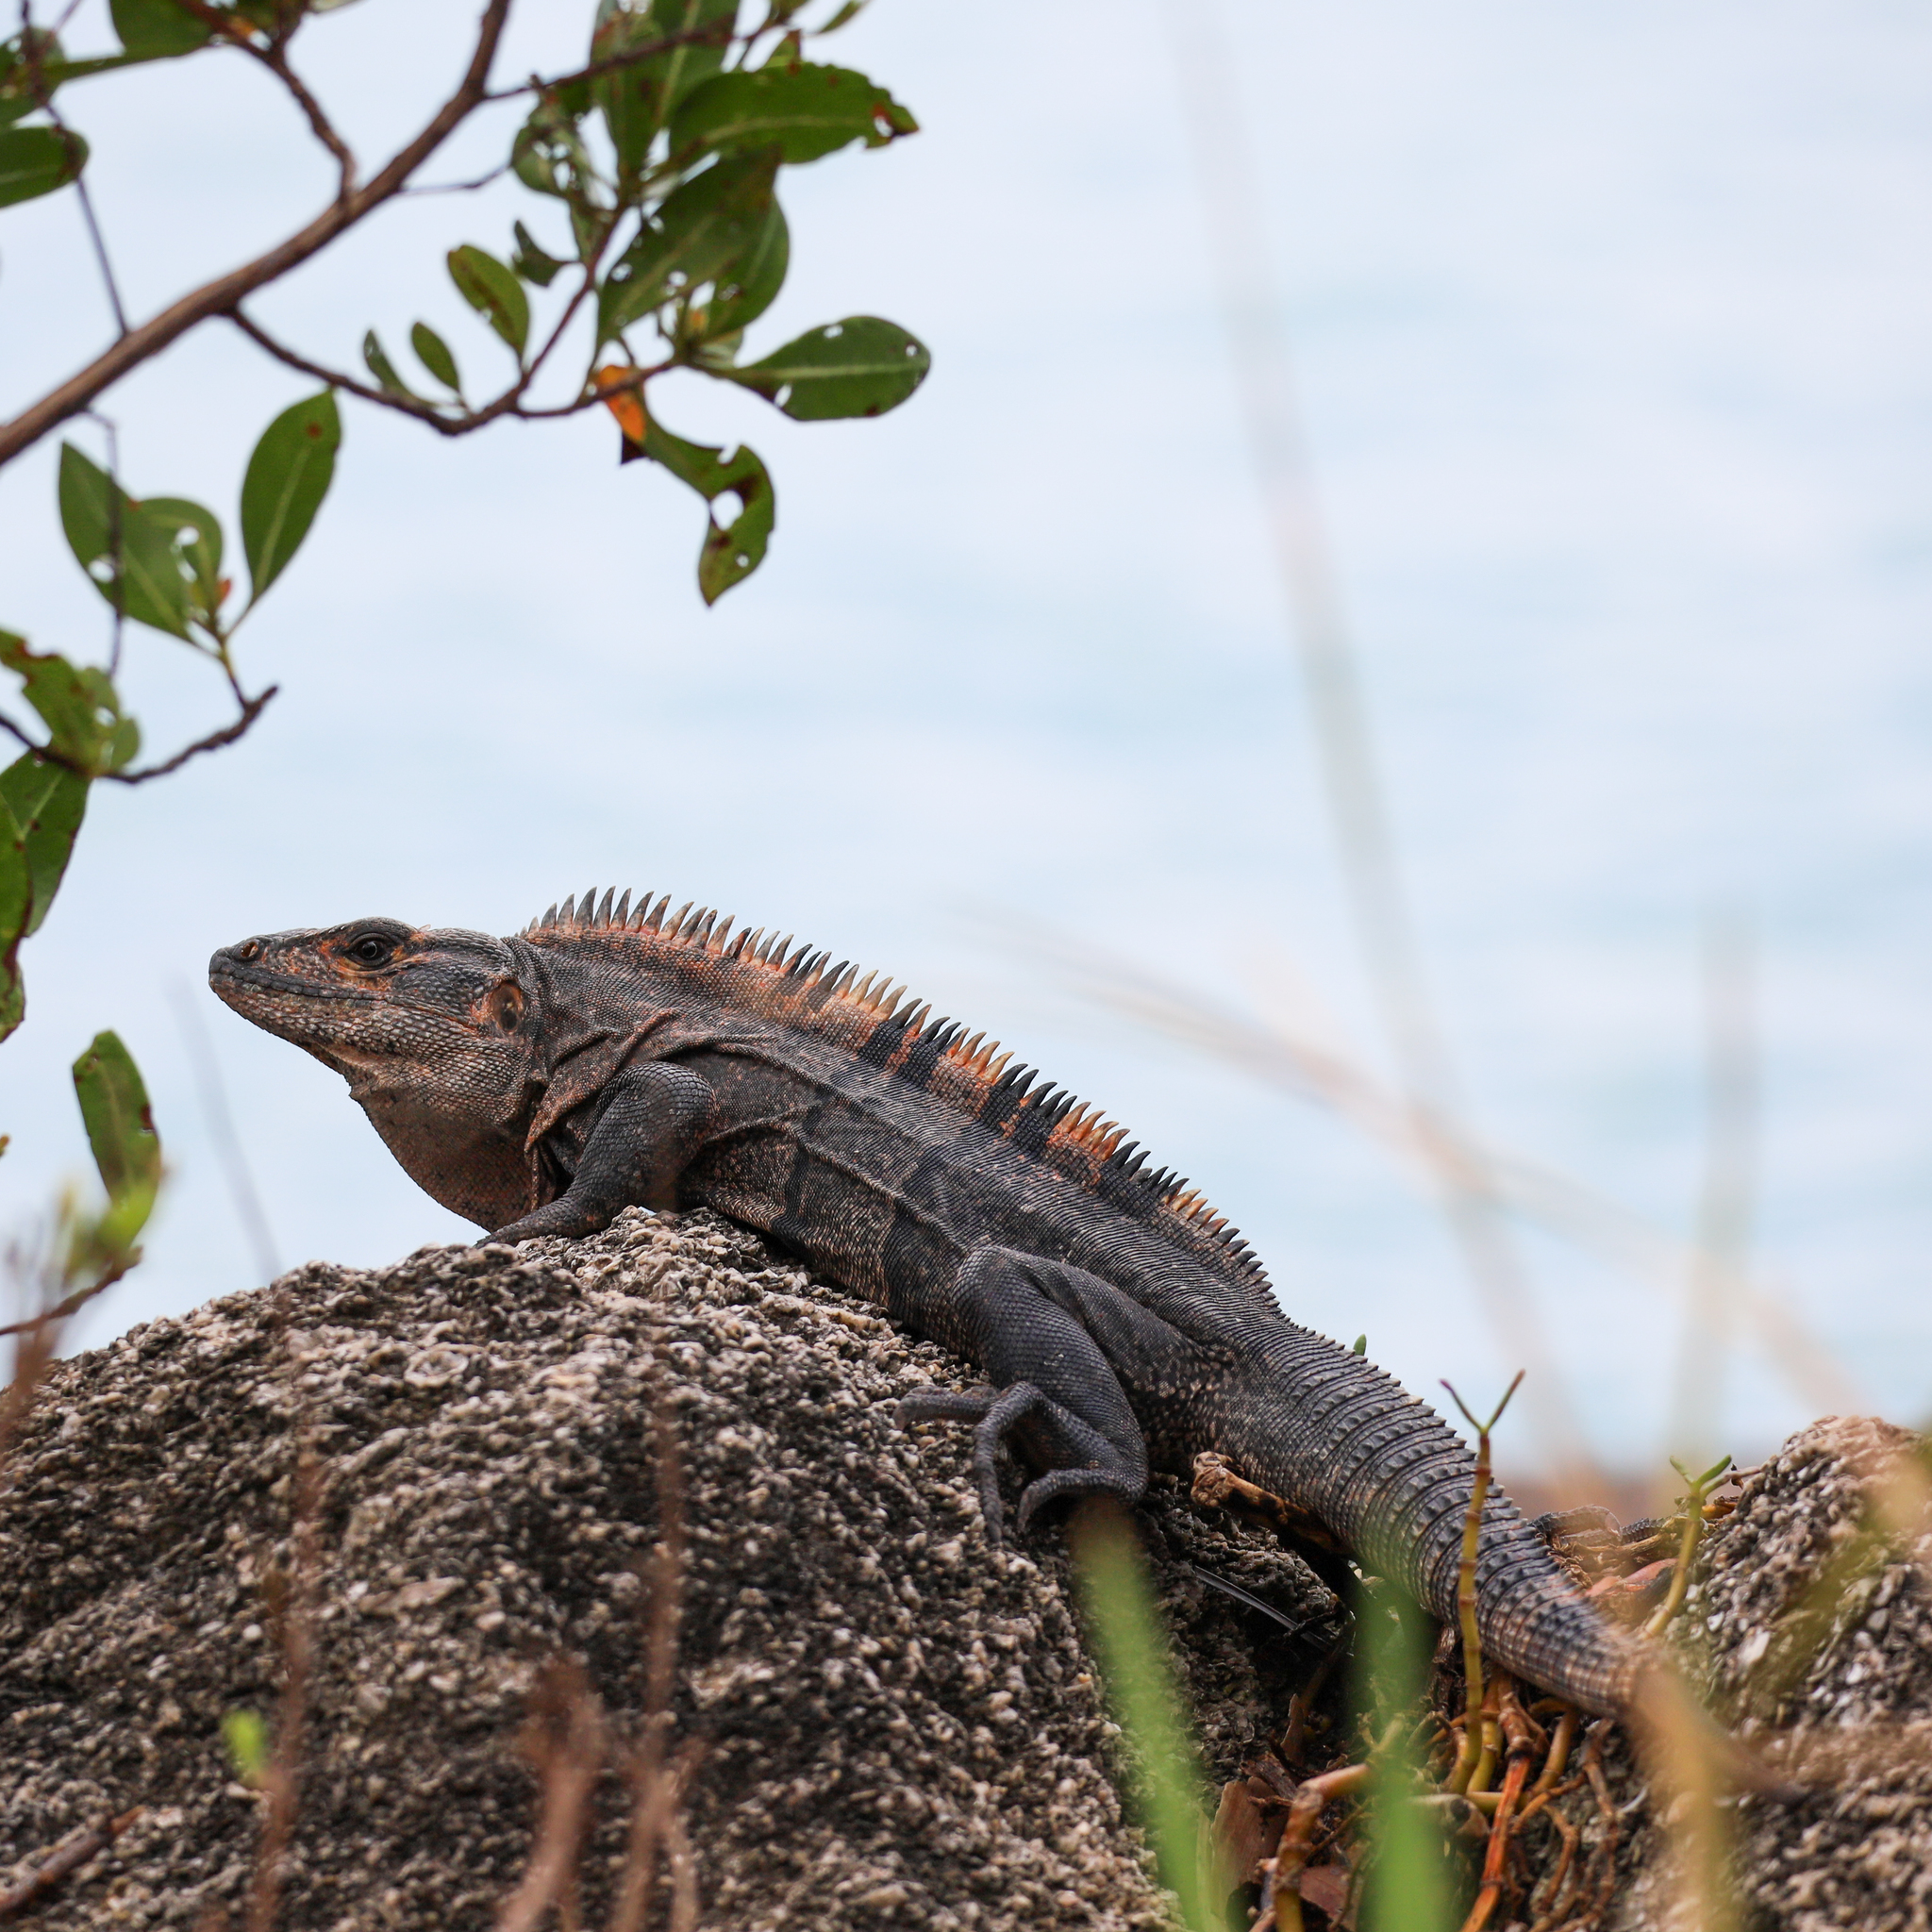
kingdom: Animalia
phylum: Chordata
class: Squamata
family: Iguanidae
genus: Ctenosaura
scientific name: Ctenosaura similis
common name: Black spiny-tailed iguana
